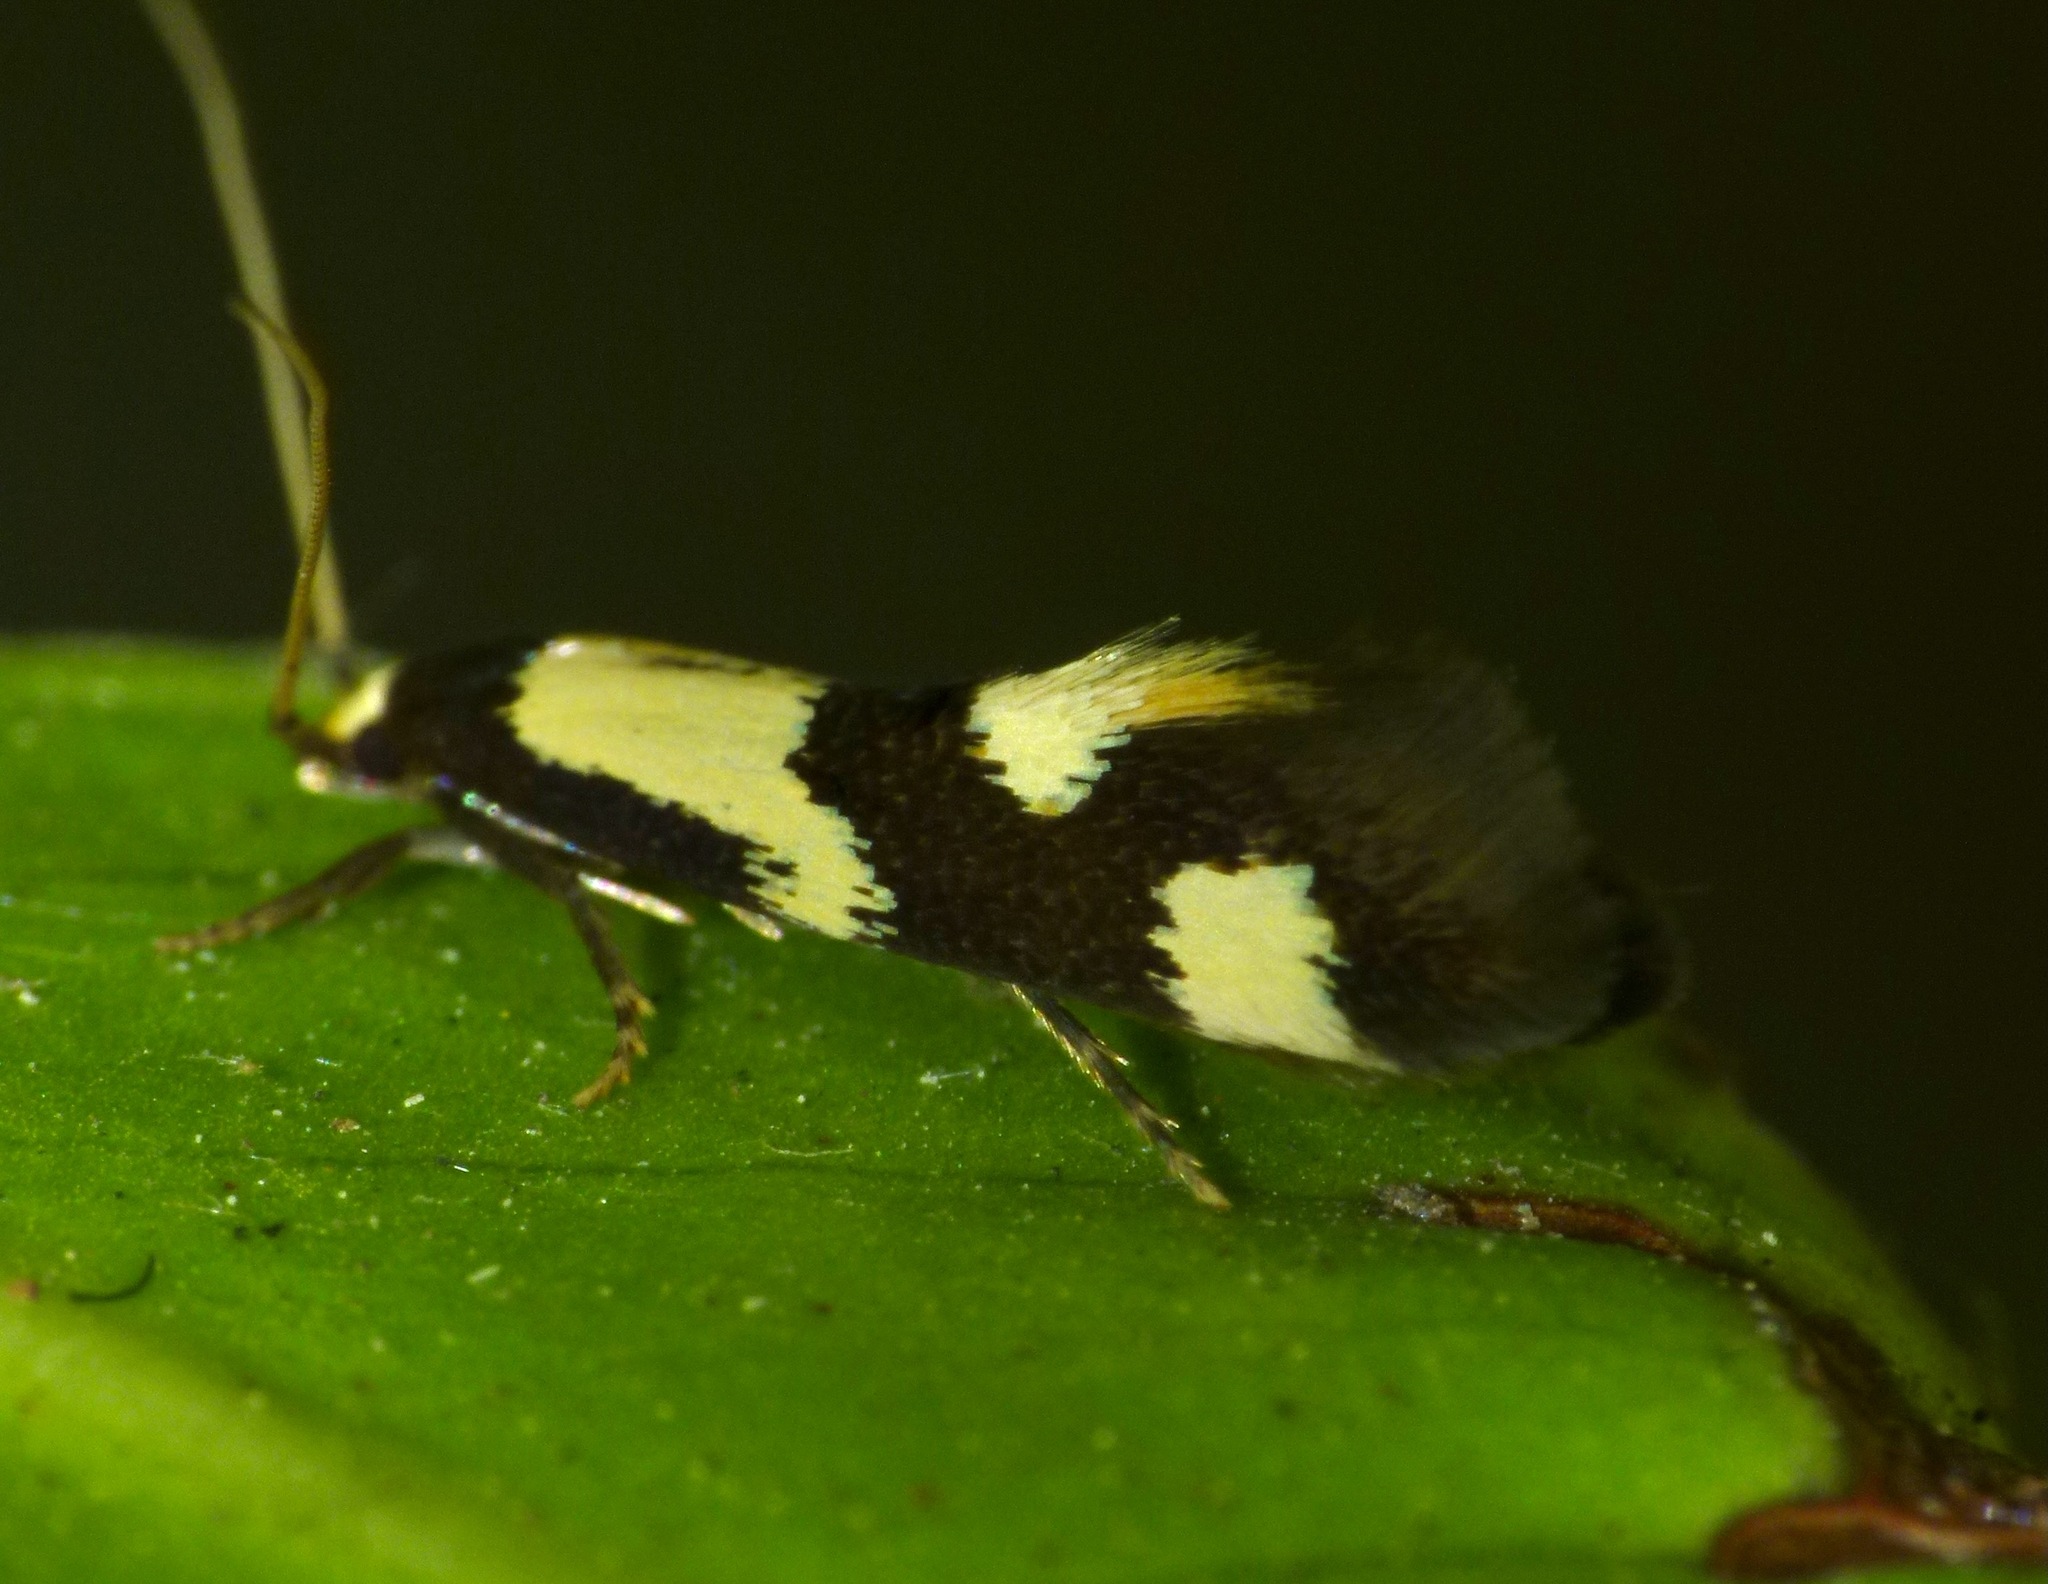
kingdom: Animalia
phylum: Arthropoda
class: Insecta
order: Lepidoptera
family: Tineidae
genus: Opogona
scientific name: Opogona comptella
